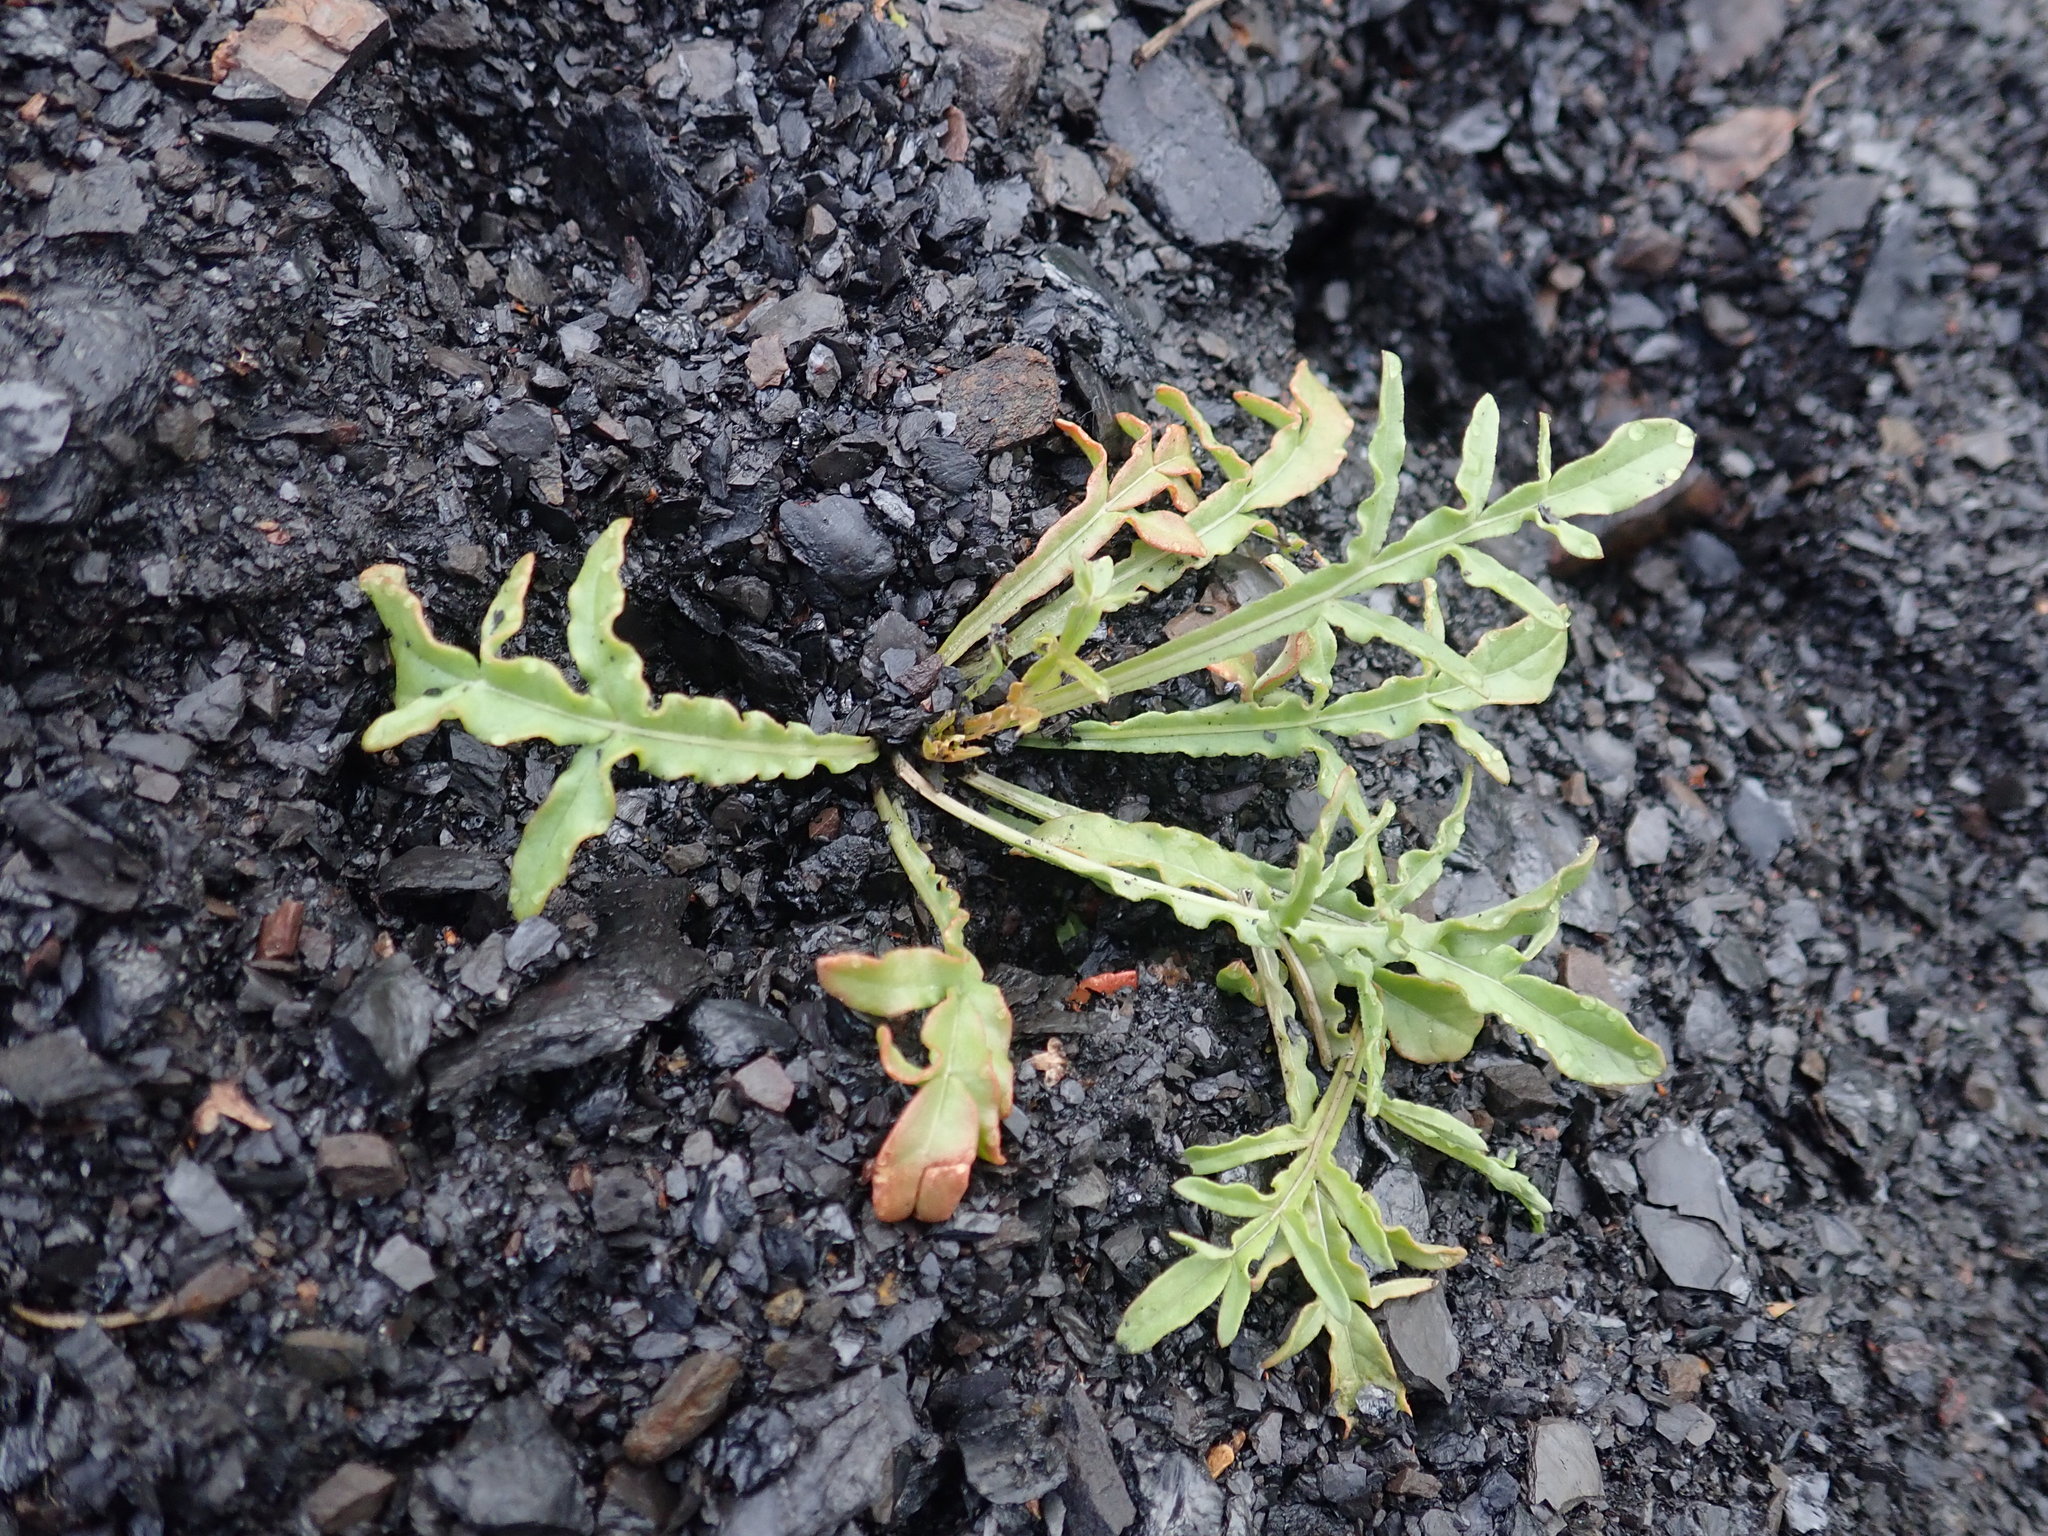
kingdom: Plantae
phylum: Tracheophyta
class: Magnoliopsida
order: Brassicales
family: Resedaceae
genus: Reseda
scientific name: Reseda lutea
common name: Wild mignonette
